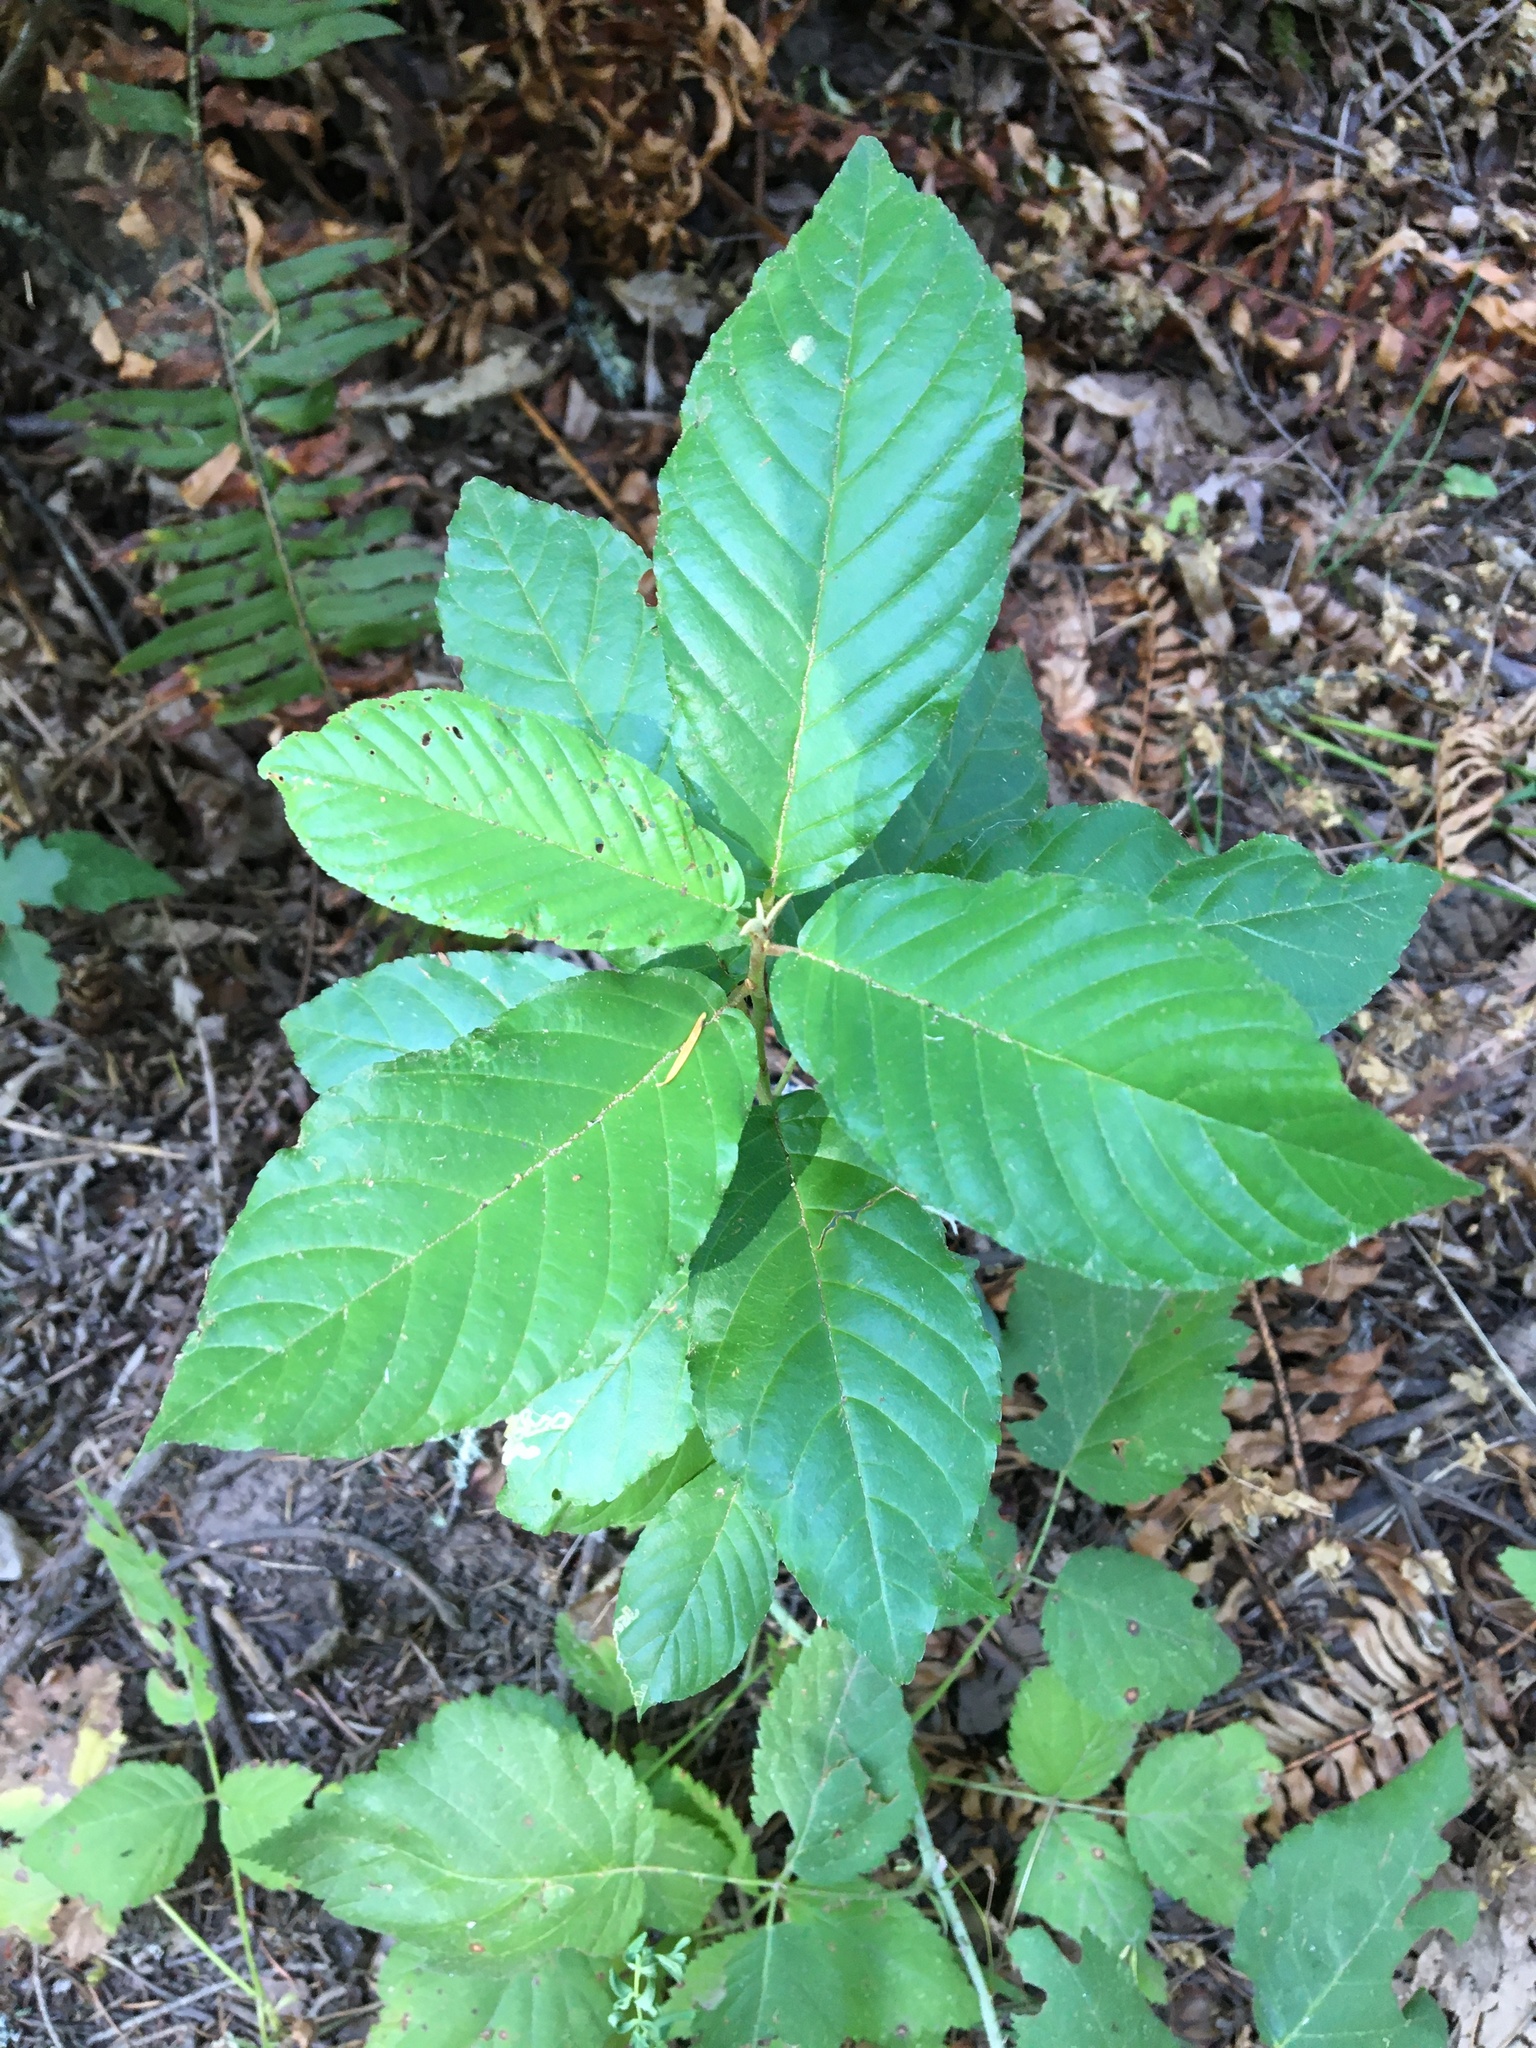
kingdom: Plantae
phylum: Tracheophyta
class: Magnoliopsida
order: Rosales
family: Rhamnaceae
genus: Frangula
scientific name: Frangula purshiana
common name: Cascara buckthorn
